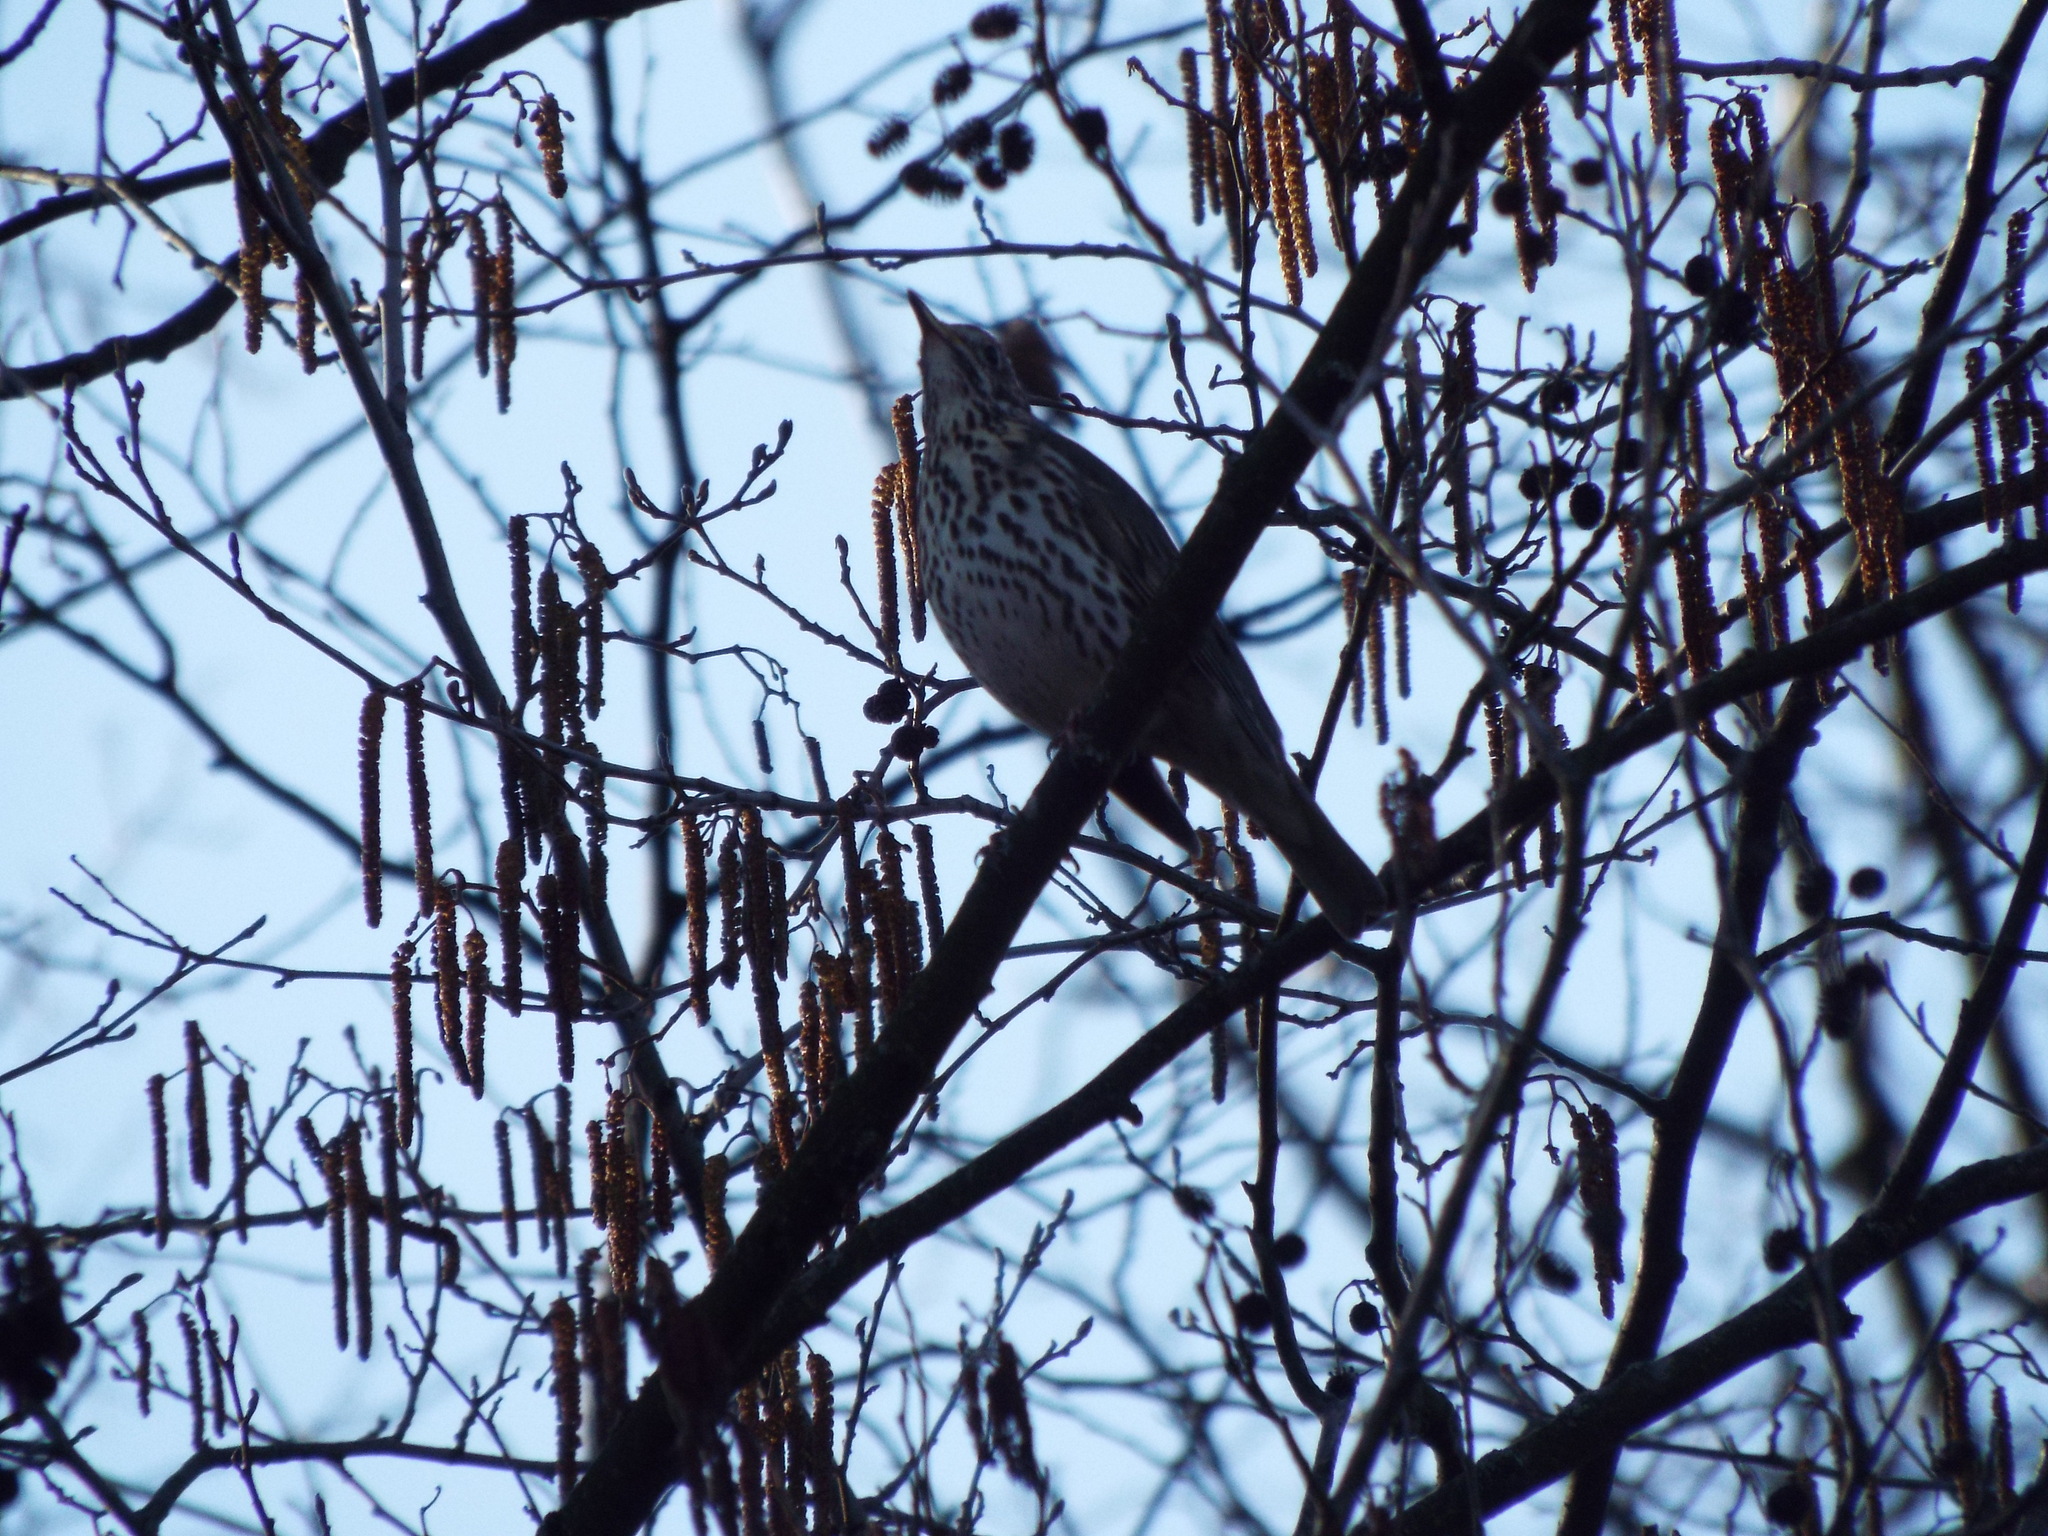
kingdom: Animalia
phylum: Chordata
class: Aves
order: Passeriformes
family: Turdidae
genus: Turdus
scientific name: Turdus philomelos
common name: Song thrush
